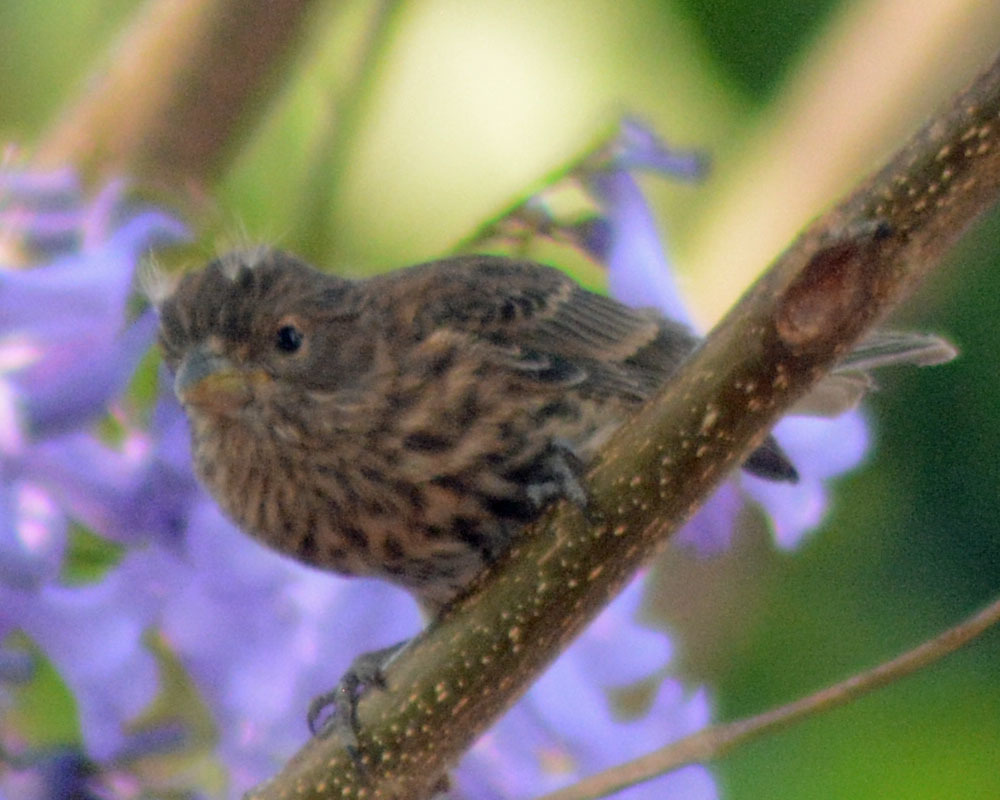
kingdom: Animalia
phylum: Chordata
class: Aves
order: Passeriformes
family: Fringillidae
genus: Haemorhous
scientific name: Haemorhous mexicanus
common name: House finch
